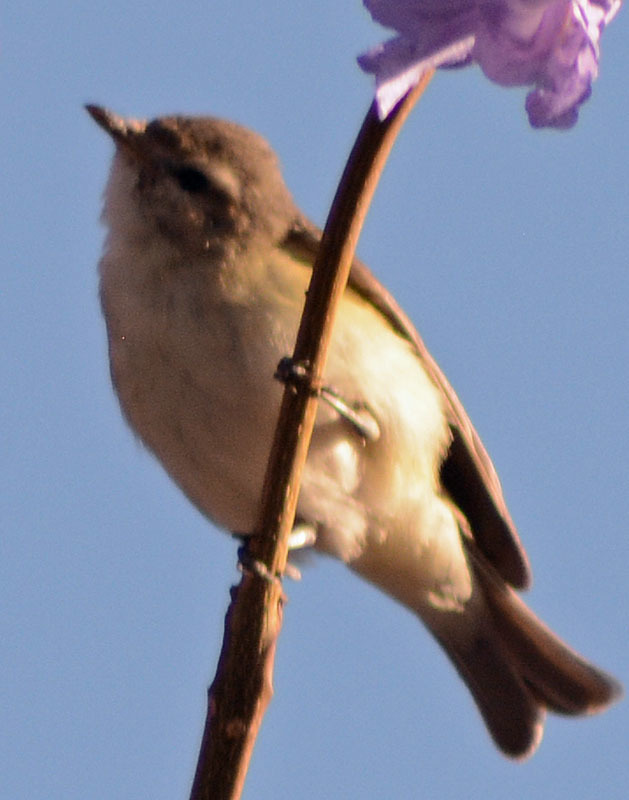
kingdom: Animalia
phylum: Chordata
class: Aves
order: Passeriformes
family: Vireonidae
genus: Vireo
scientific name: Vireo gilvus
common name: Warbling vireo
